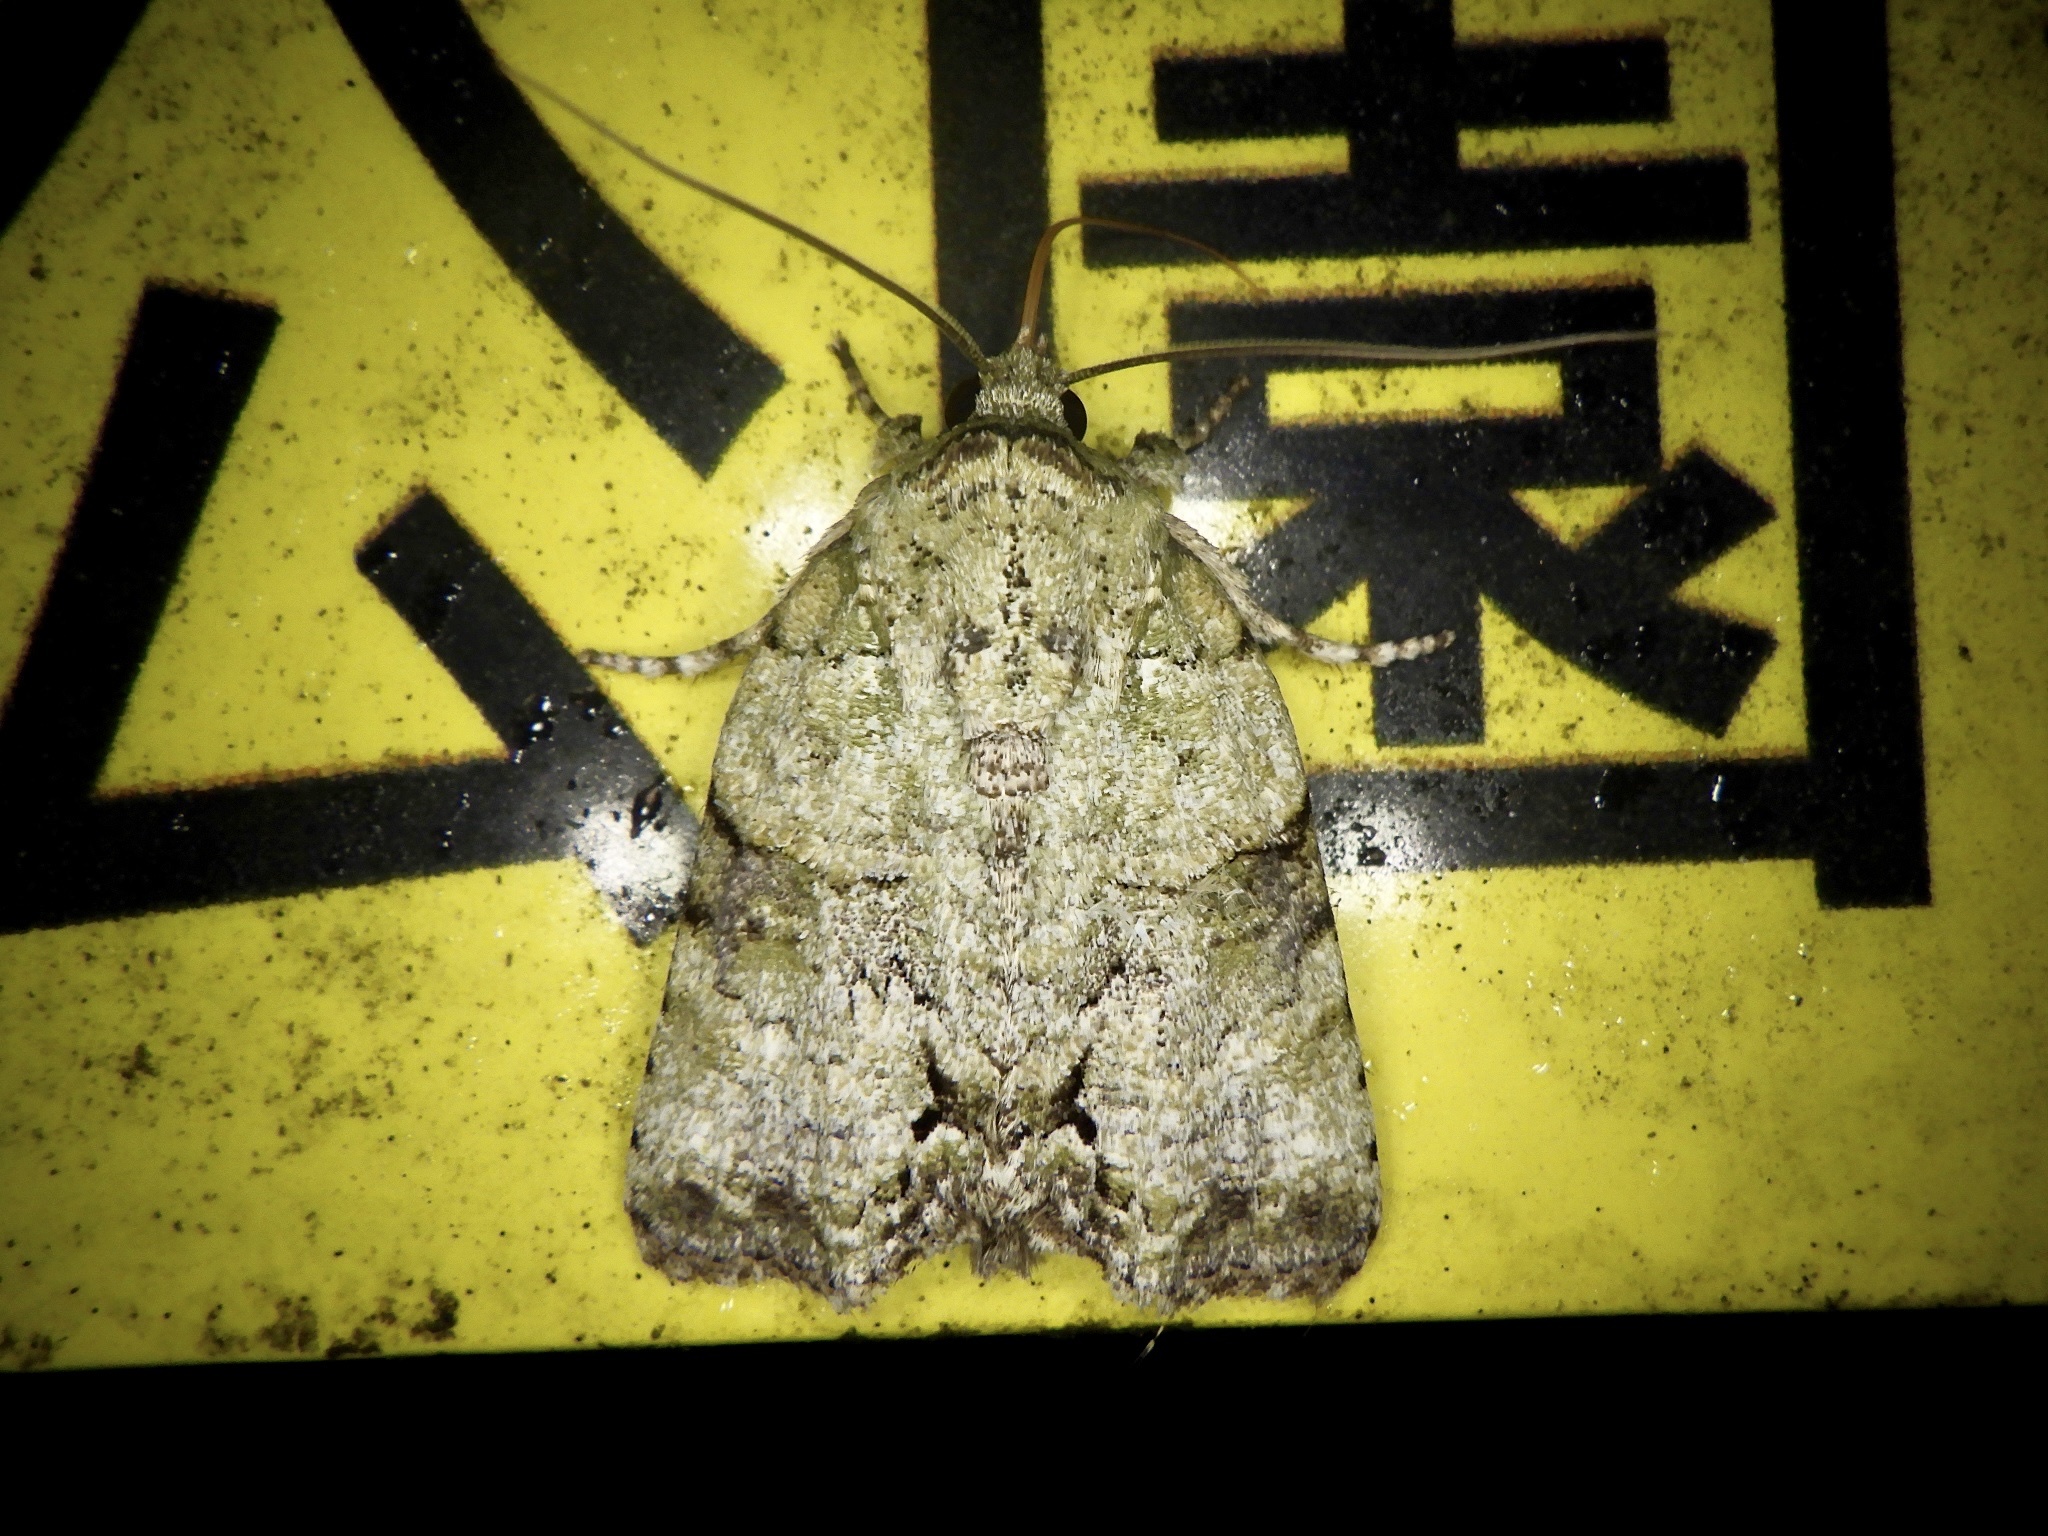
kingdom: Animalia
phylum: Arthropoda
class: Insecta
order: Lepidoptera
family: Nolidae
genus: Blenina
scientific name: Blenina senex
